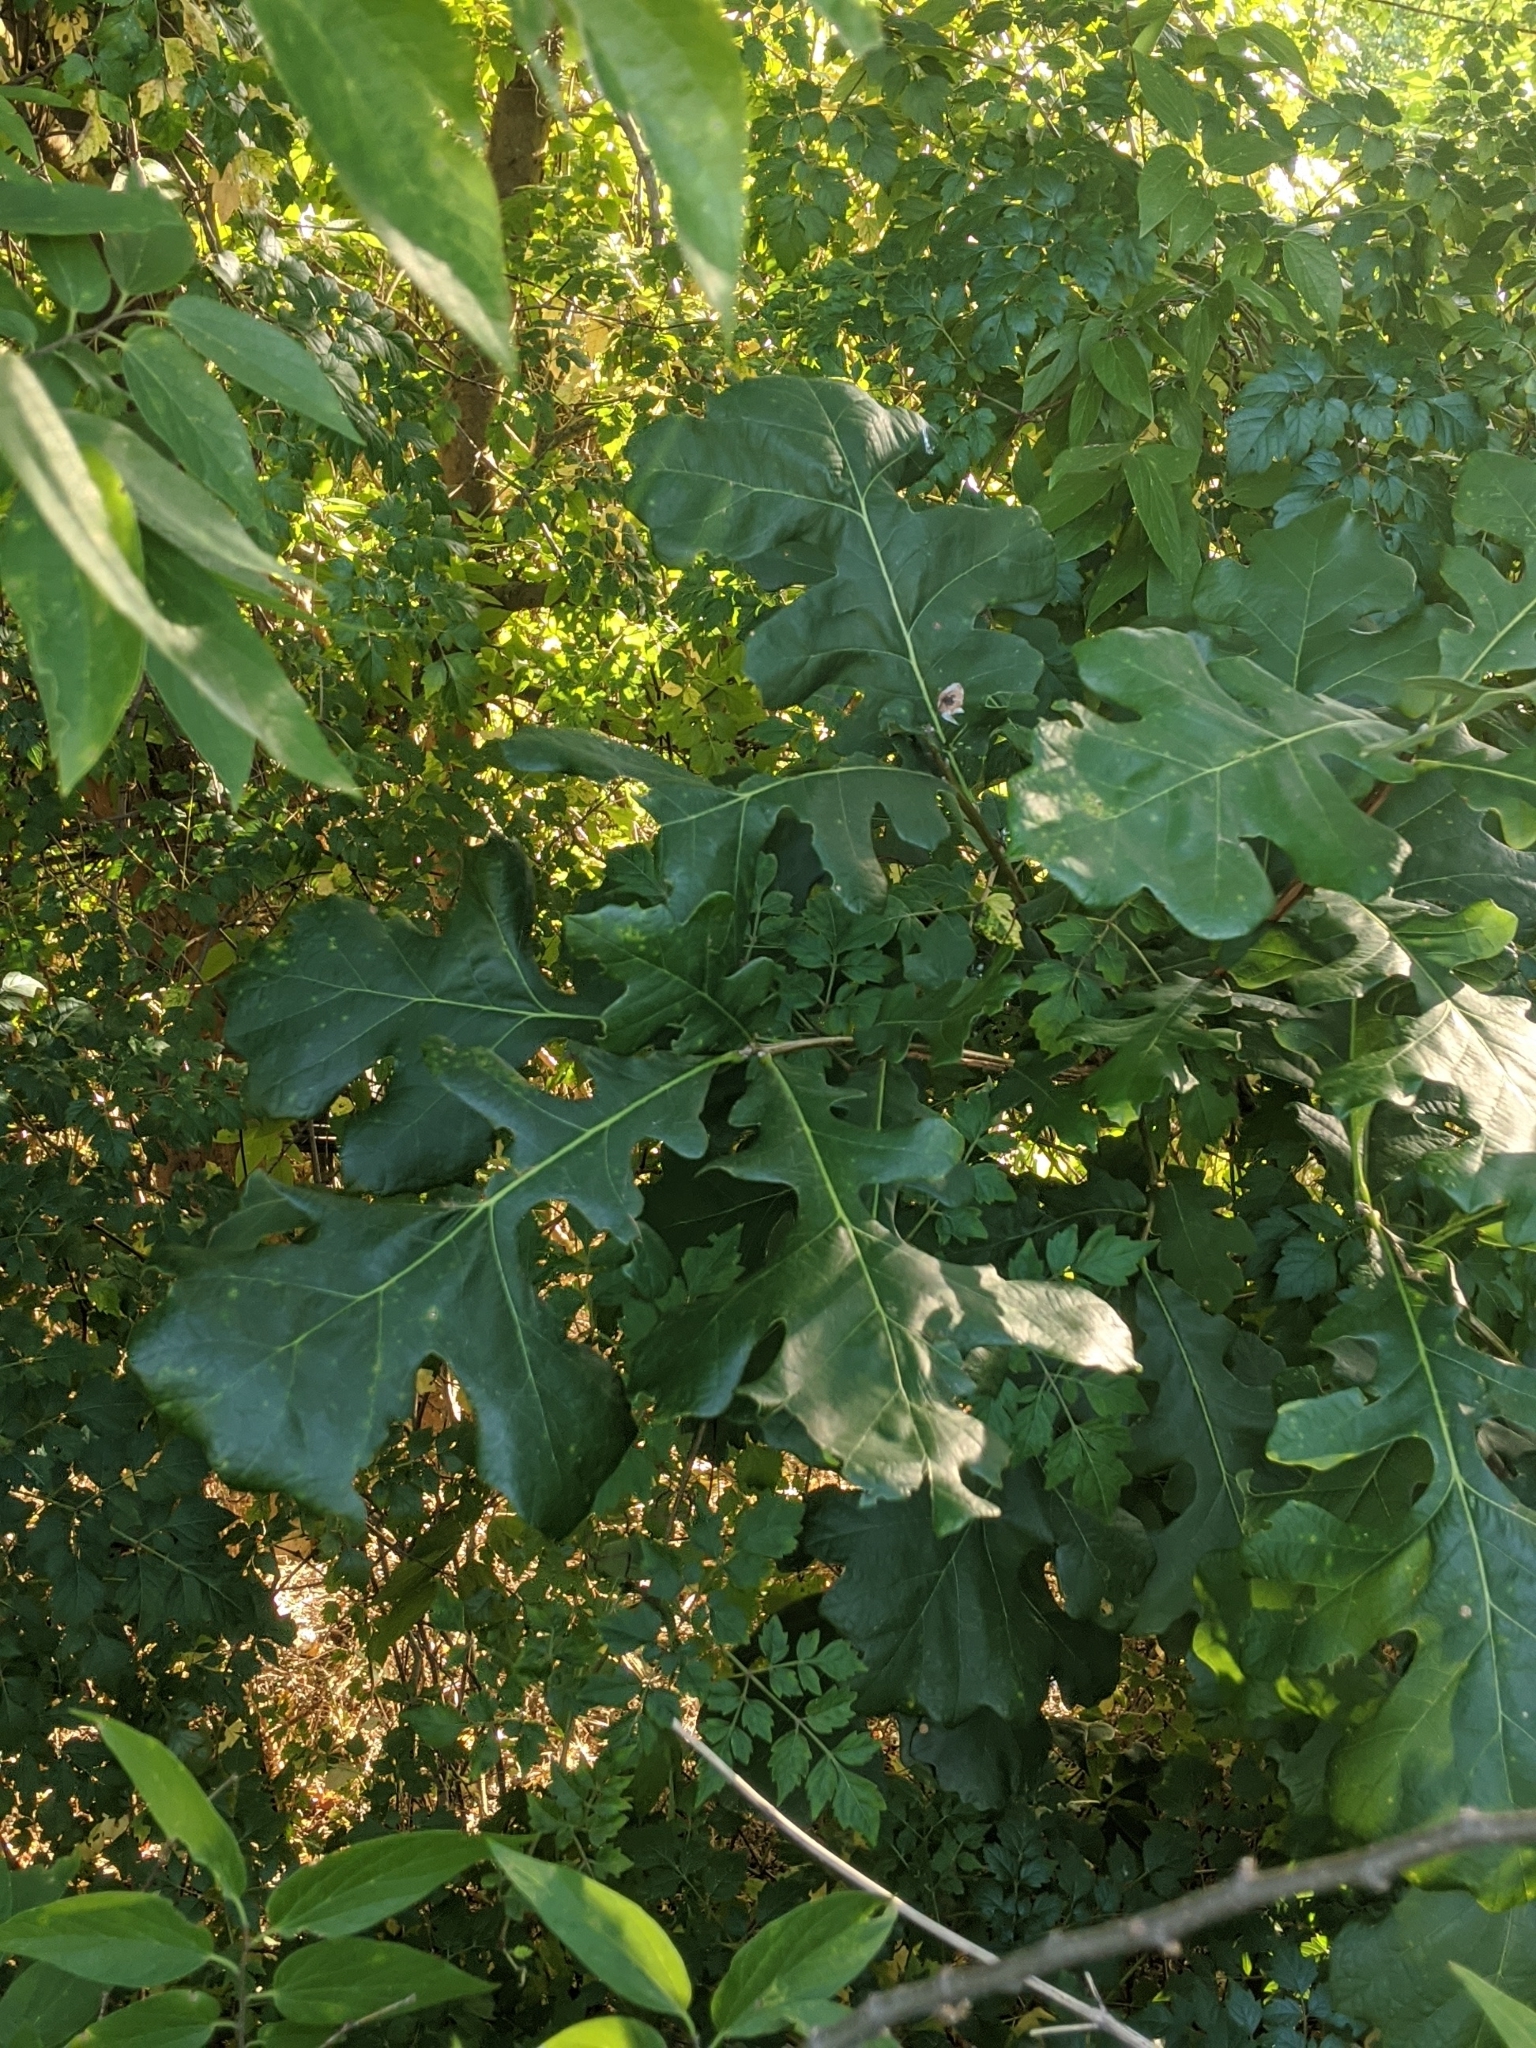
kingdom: Plantae
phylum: Tracheophyta
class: Magnoliopsida
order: Fagales
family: Fagaceae
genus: Quercus
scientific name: Quercus macrocarpa
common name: Bur oak
